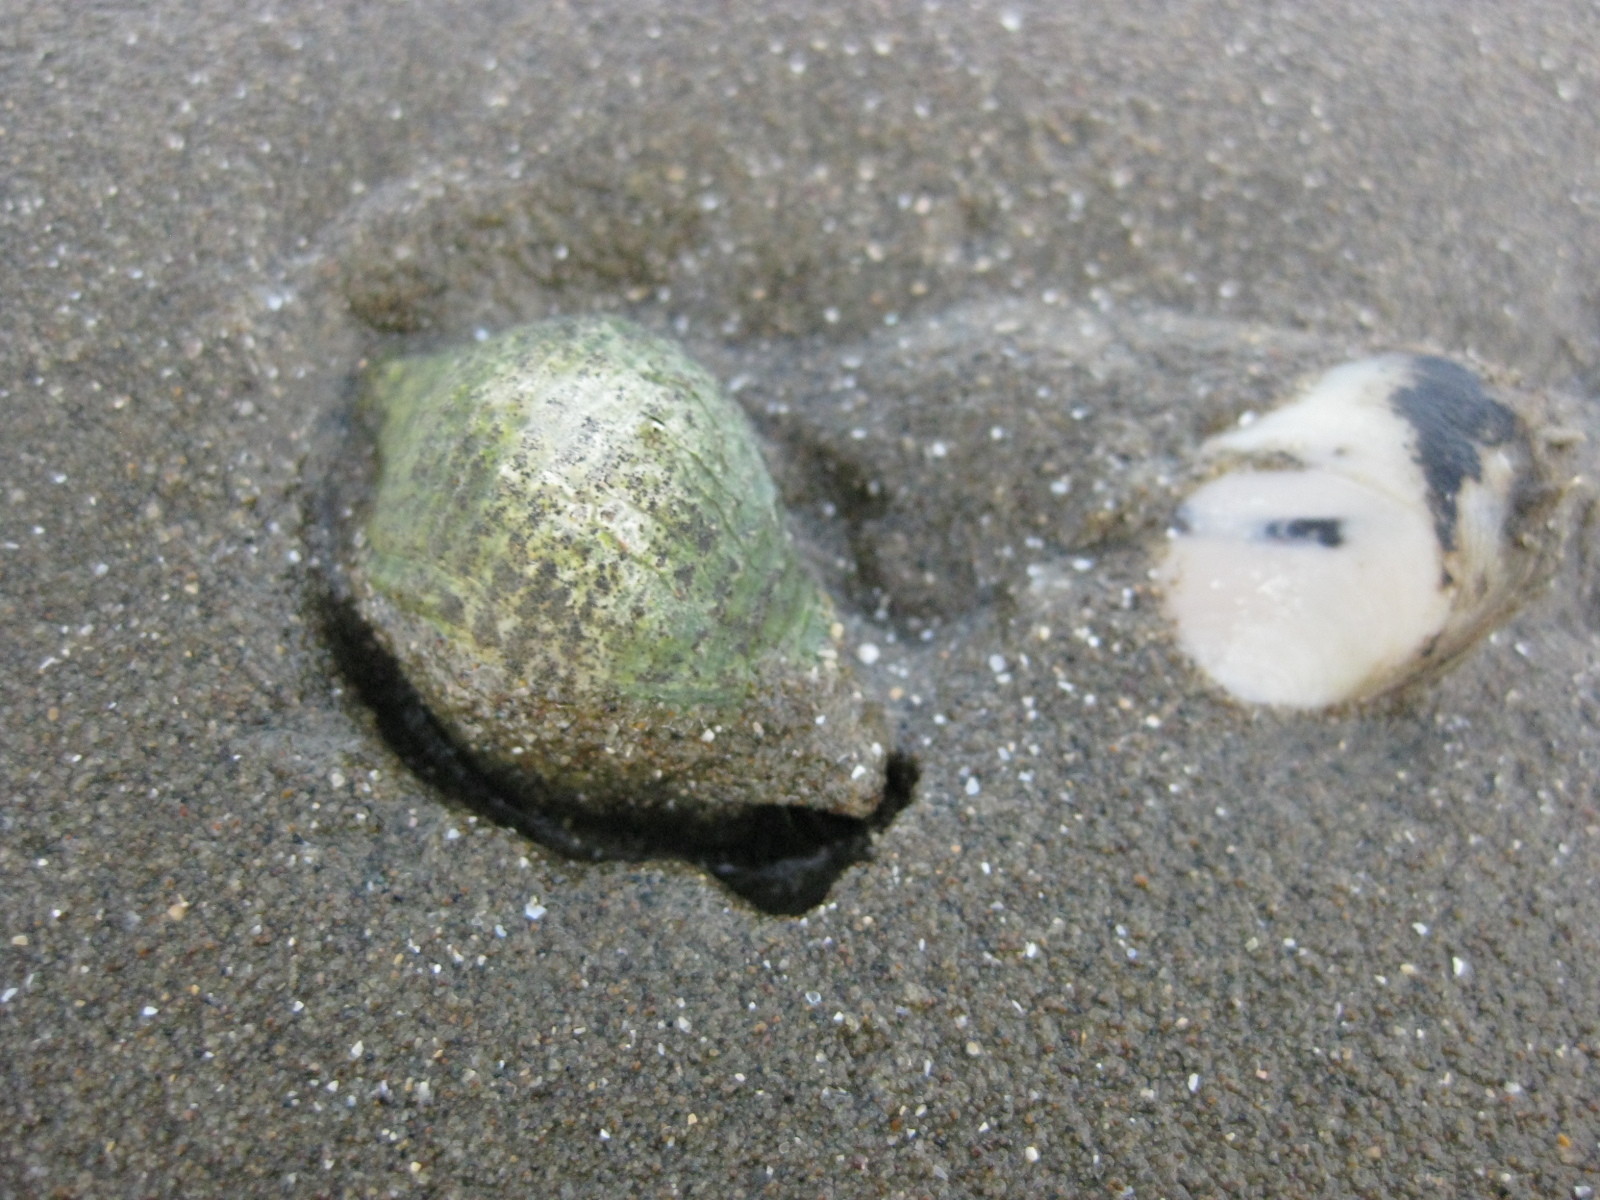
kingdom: Animalia
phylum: Mollusca
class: Gastropoda
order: Neogastropoda
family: Cominellidae
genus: Cominella
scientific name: Cominella adspersa
